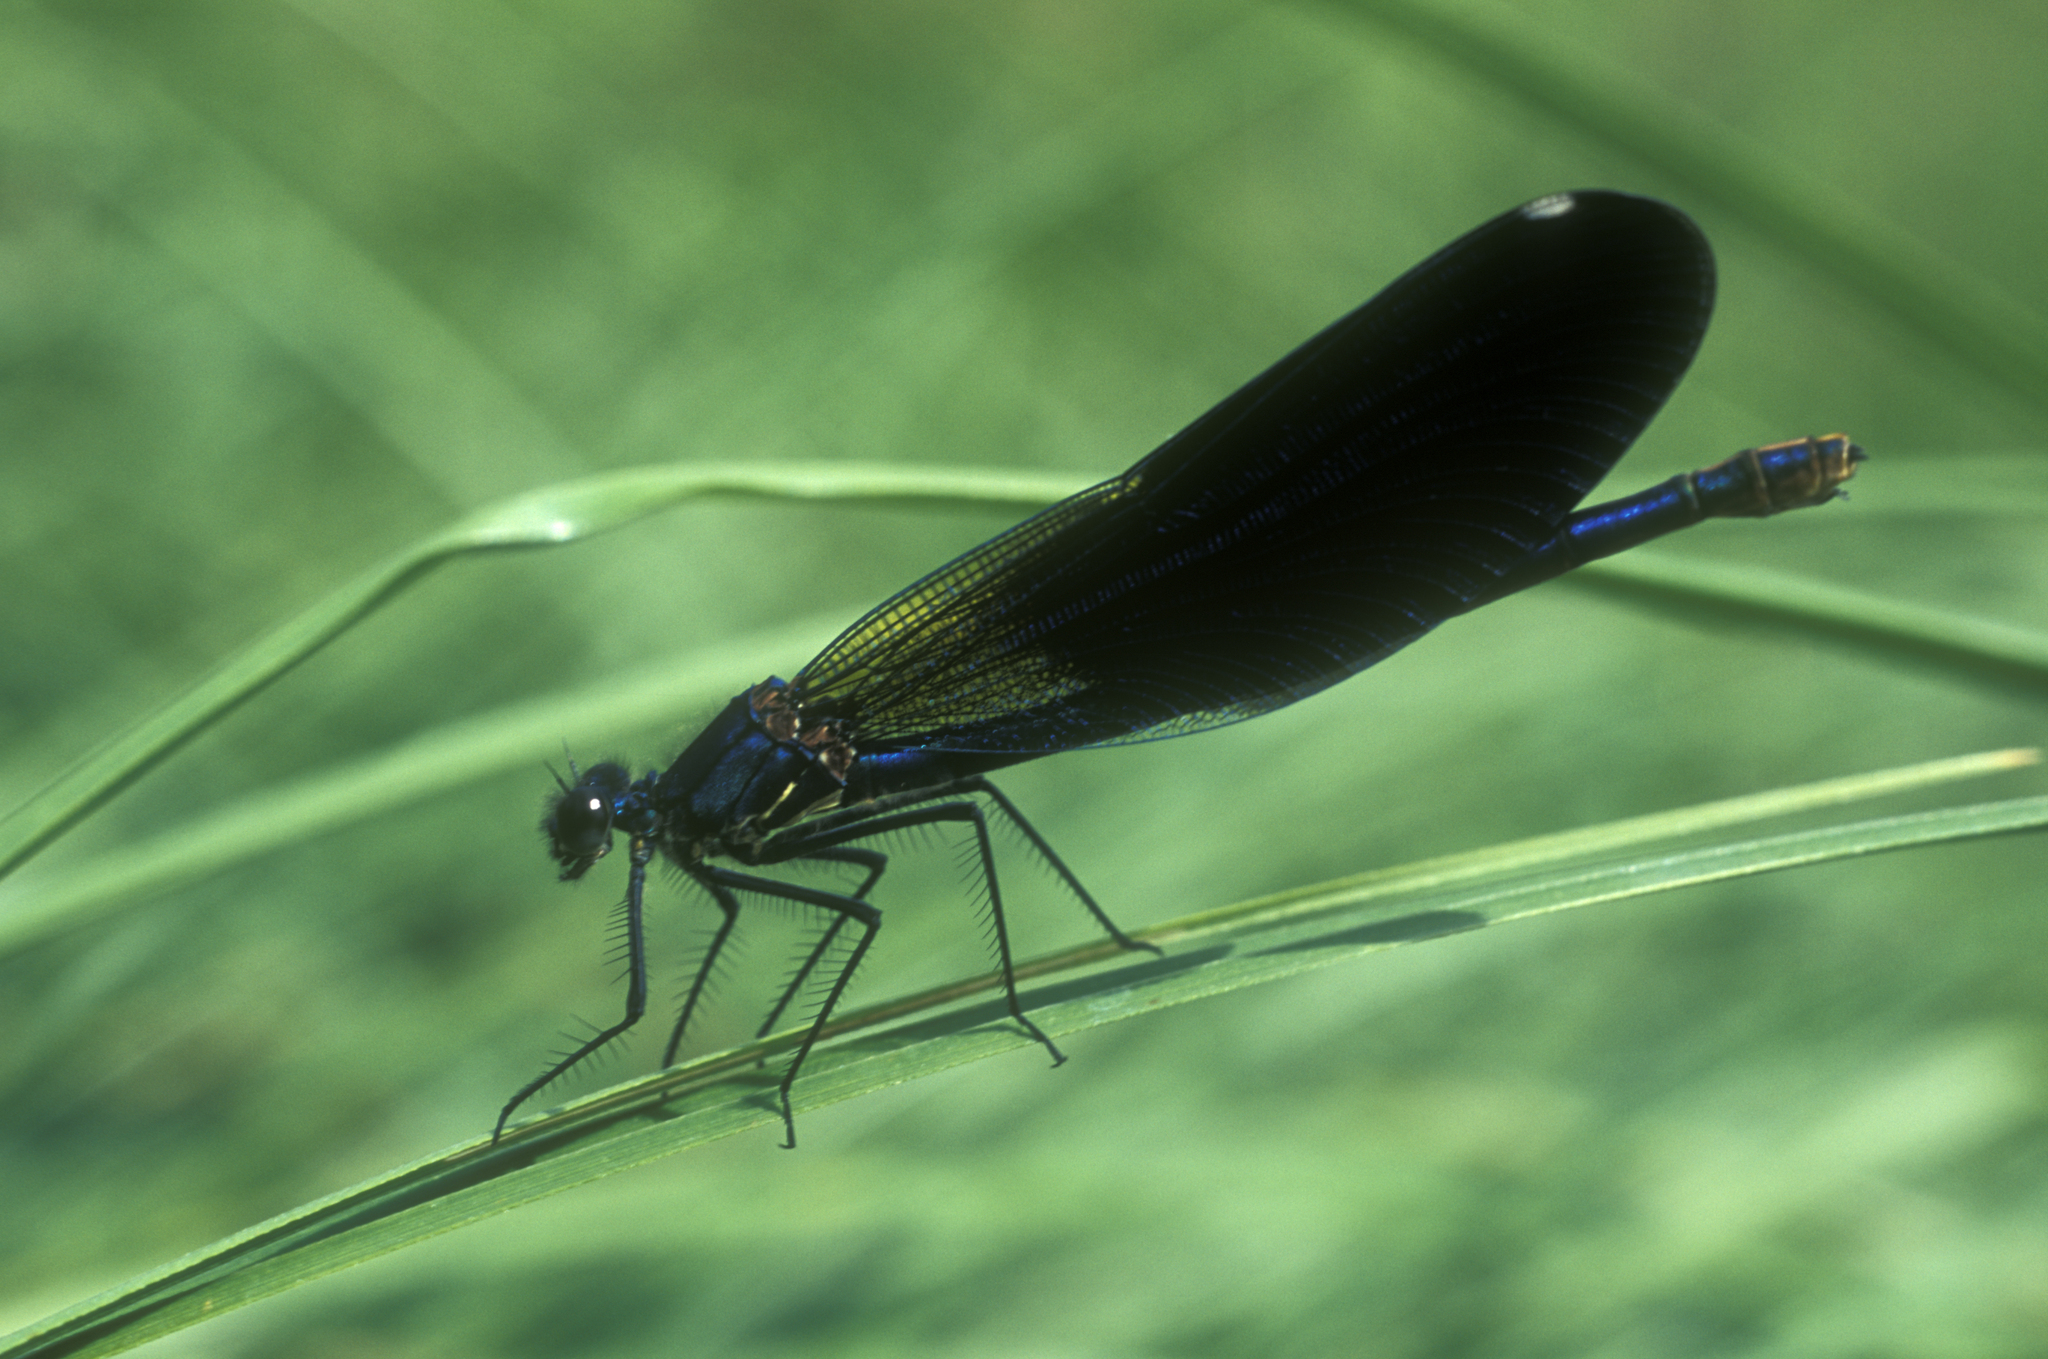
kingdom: Animalia
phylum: Arthropoda
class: Insecta
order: Odonata
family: Calopterygidae
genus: Calopteryx
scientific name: Calopteryx splendens
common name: Banded demoiselle
